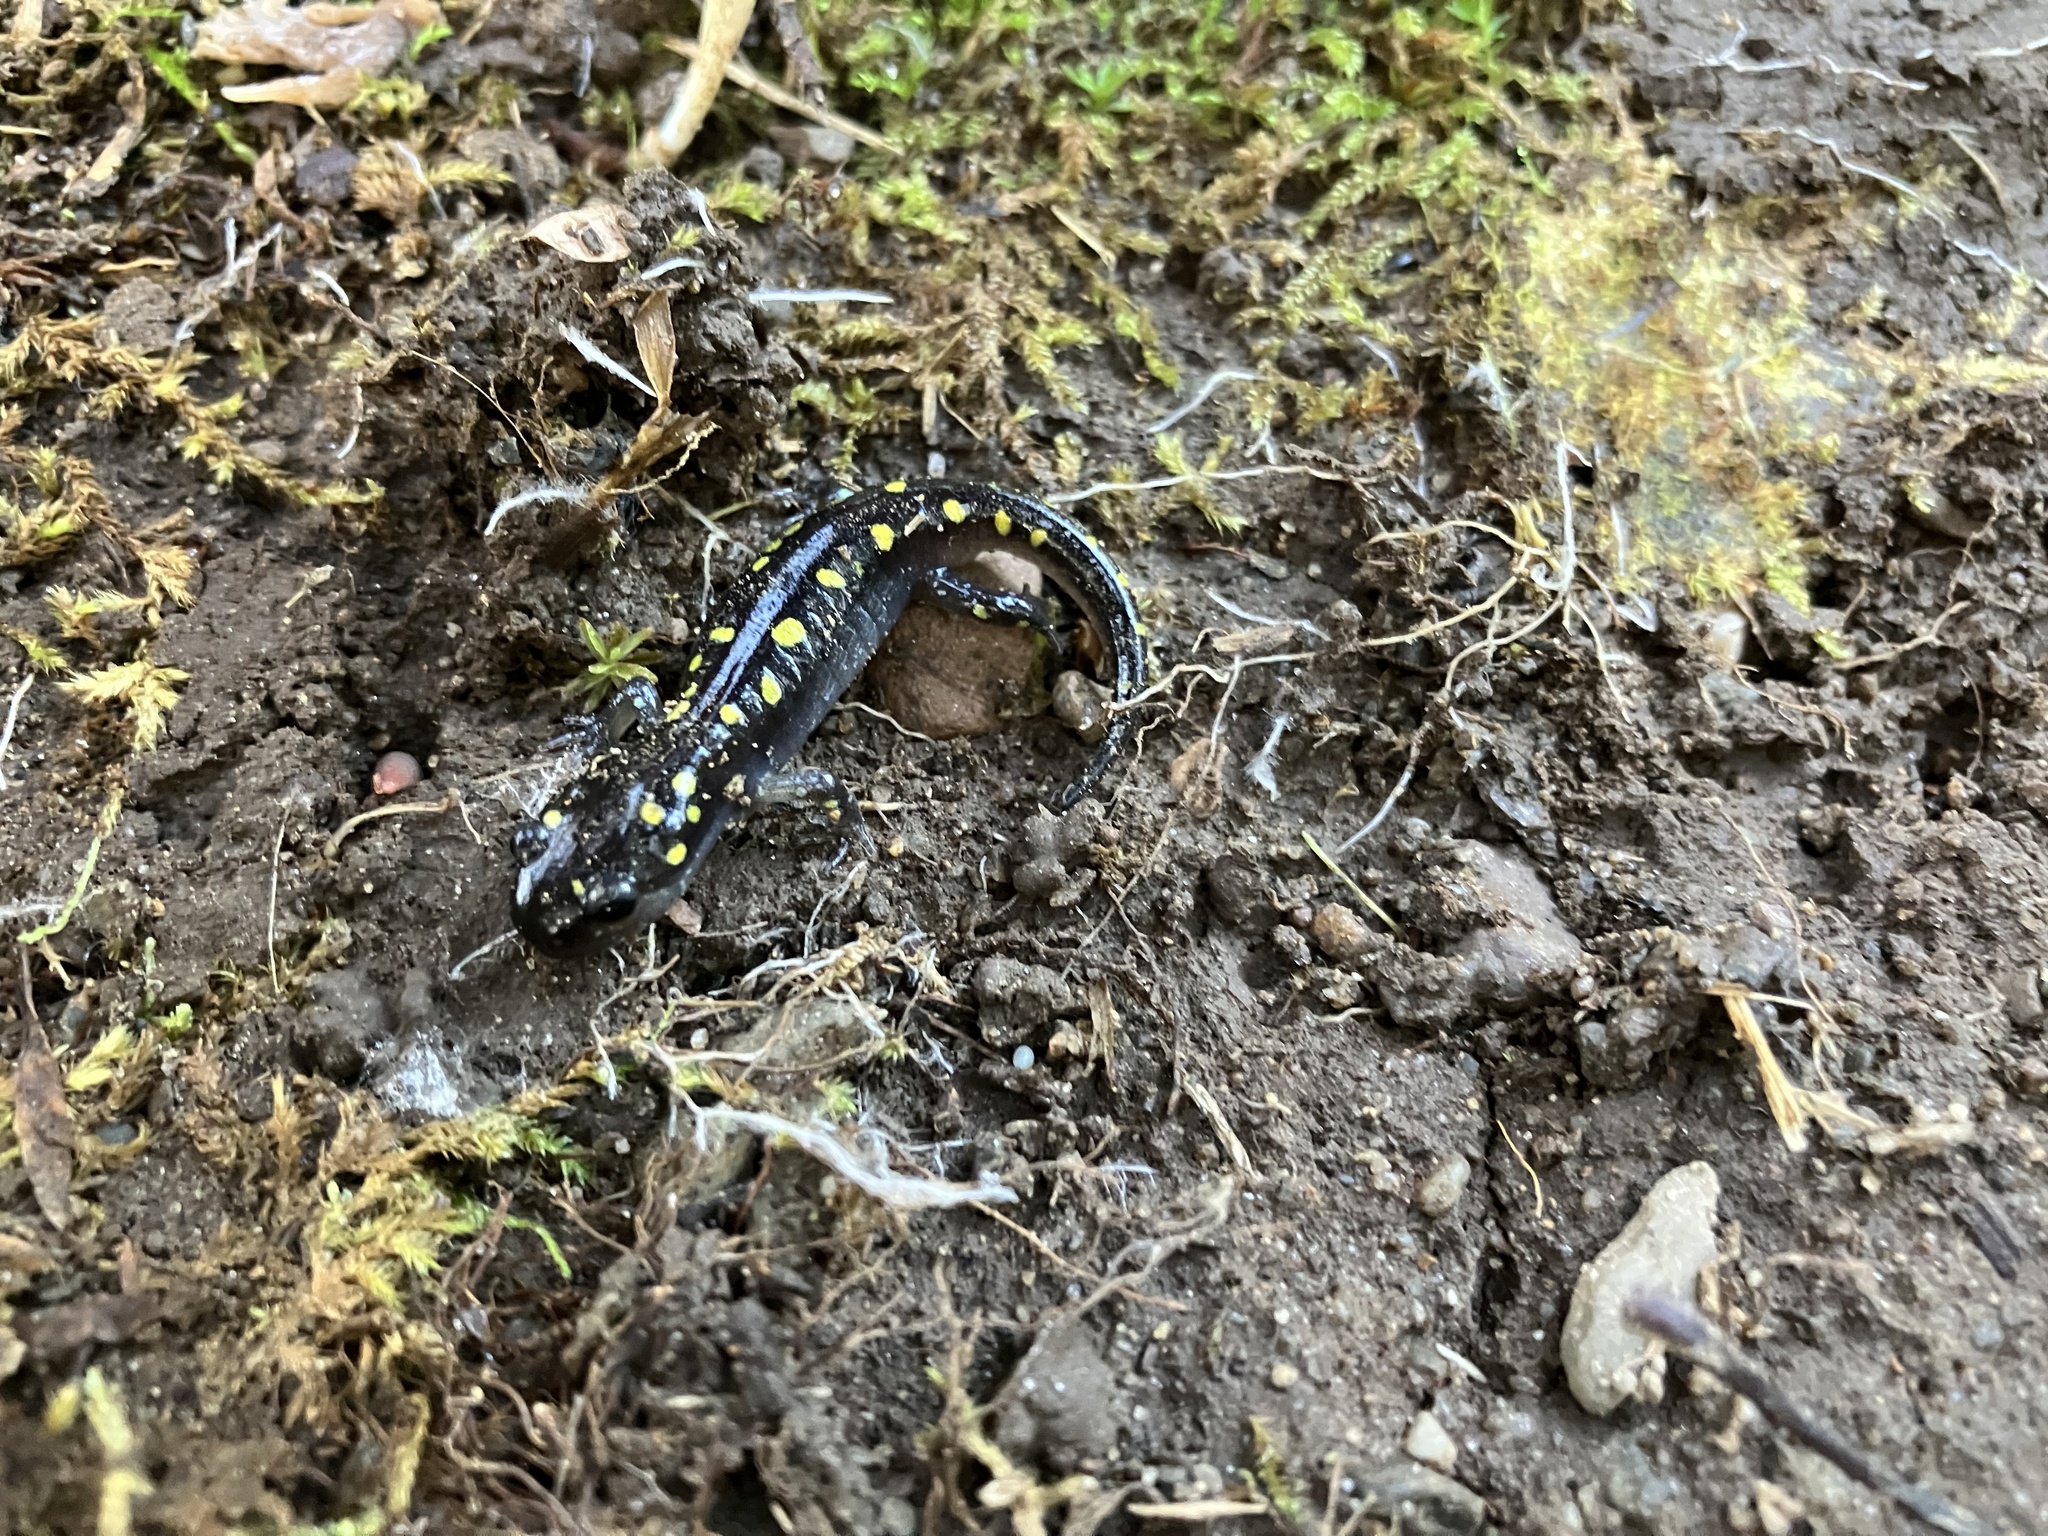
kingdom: Animalia
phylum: Chordata
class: Amphibia
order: Caudata
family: Ambystomatidae
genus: Ambystoma
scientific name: Ambystoma maculatum
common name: Spotted salamander
